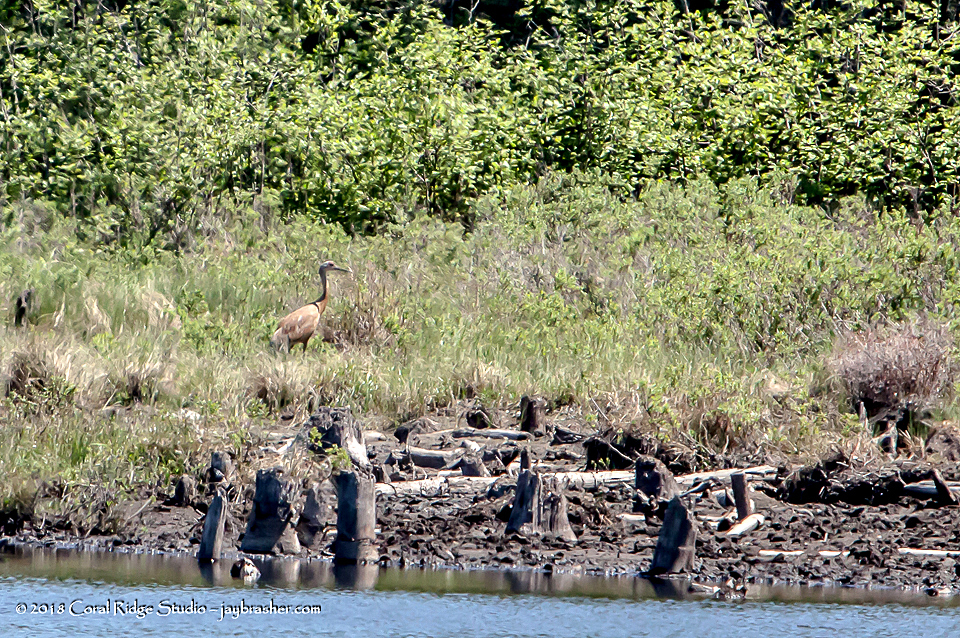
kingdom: Animalia
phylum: Chordata
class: Aves
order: Gruiformes
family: Gruidae
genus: Grus
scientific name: Grus canadensis
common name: Sandhill crane
